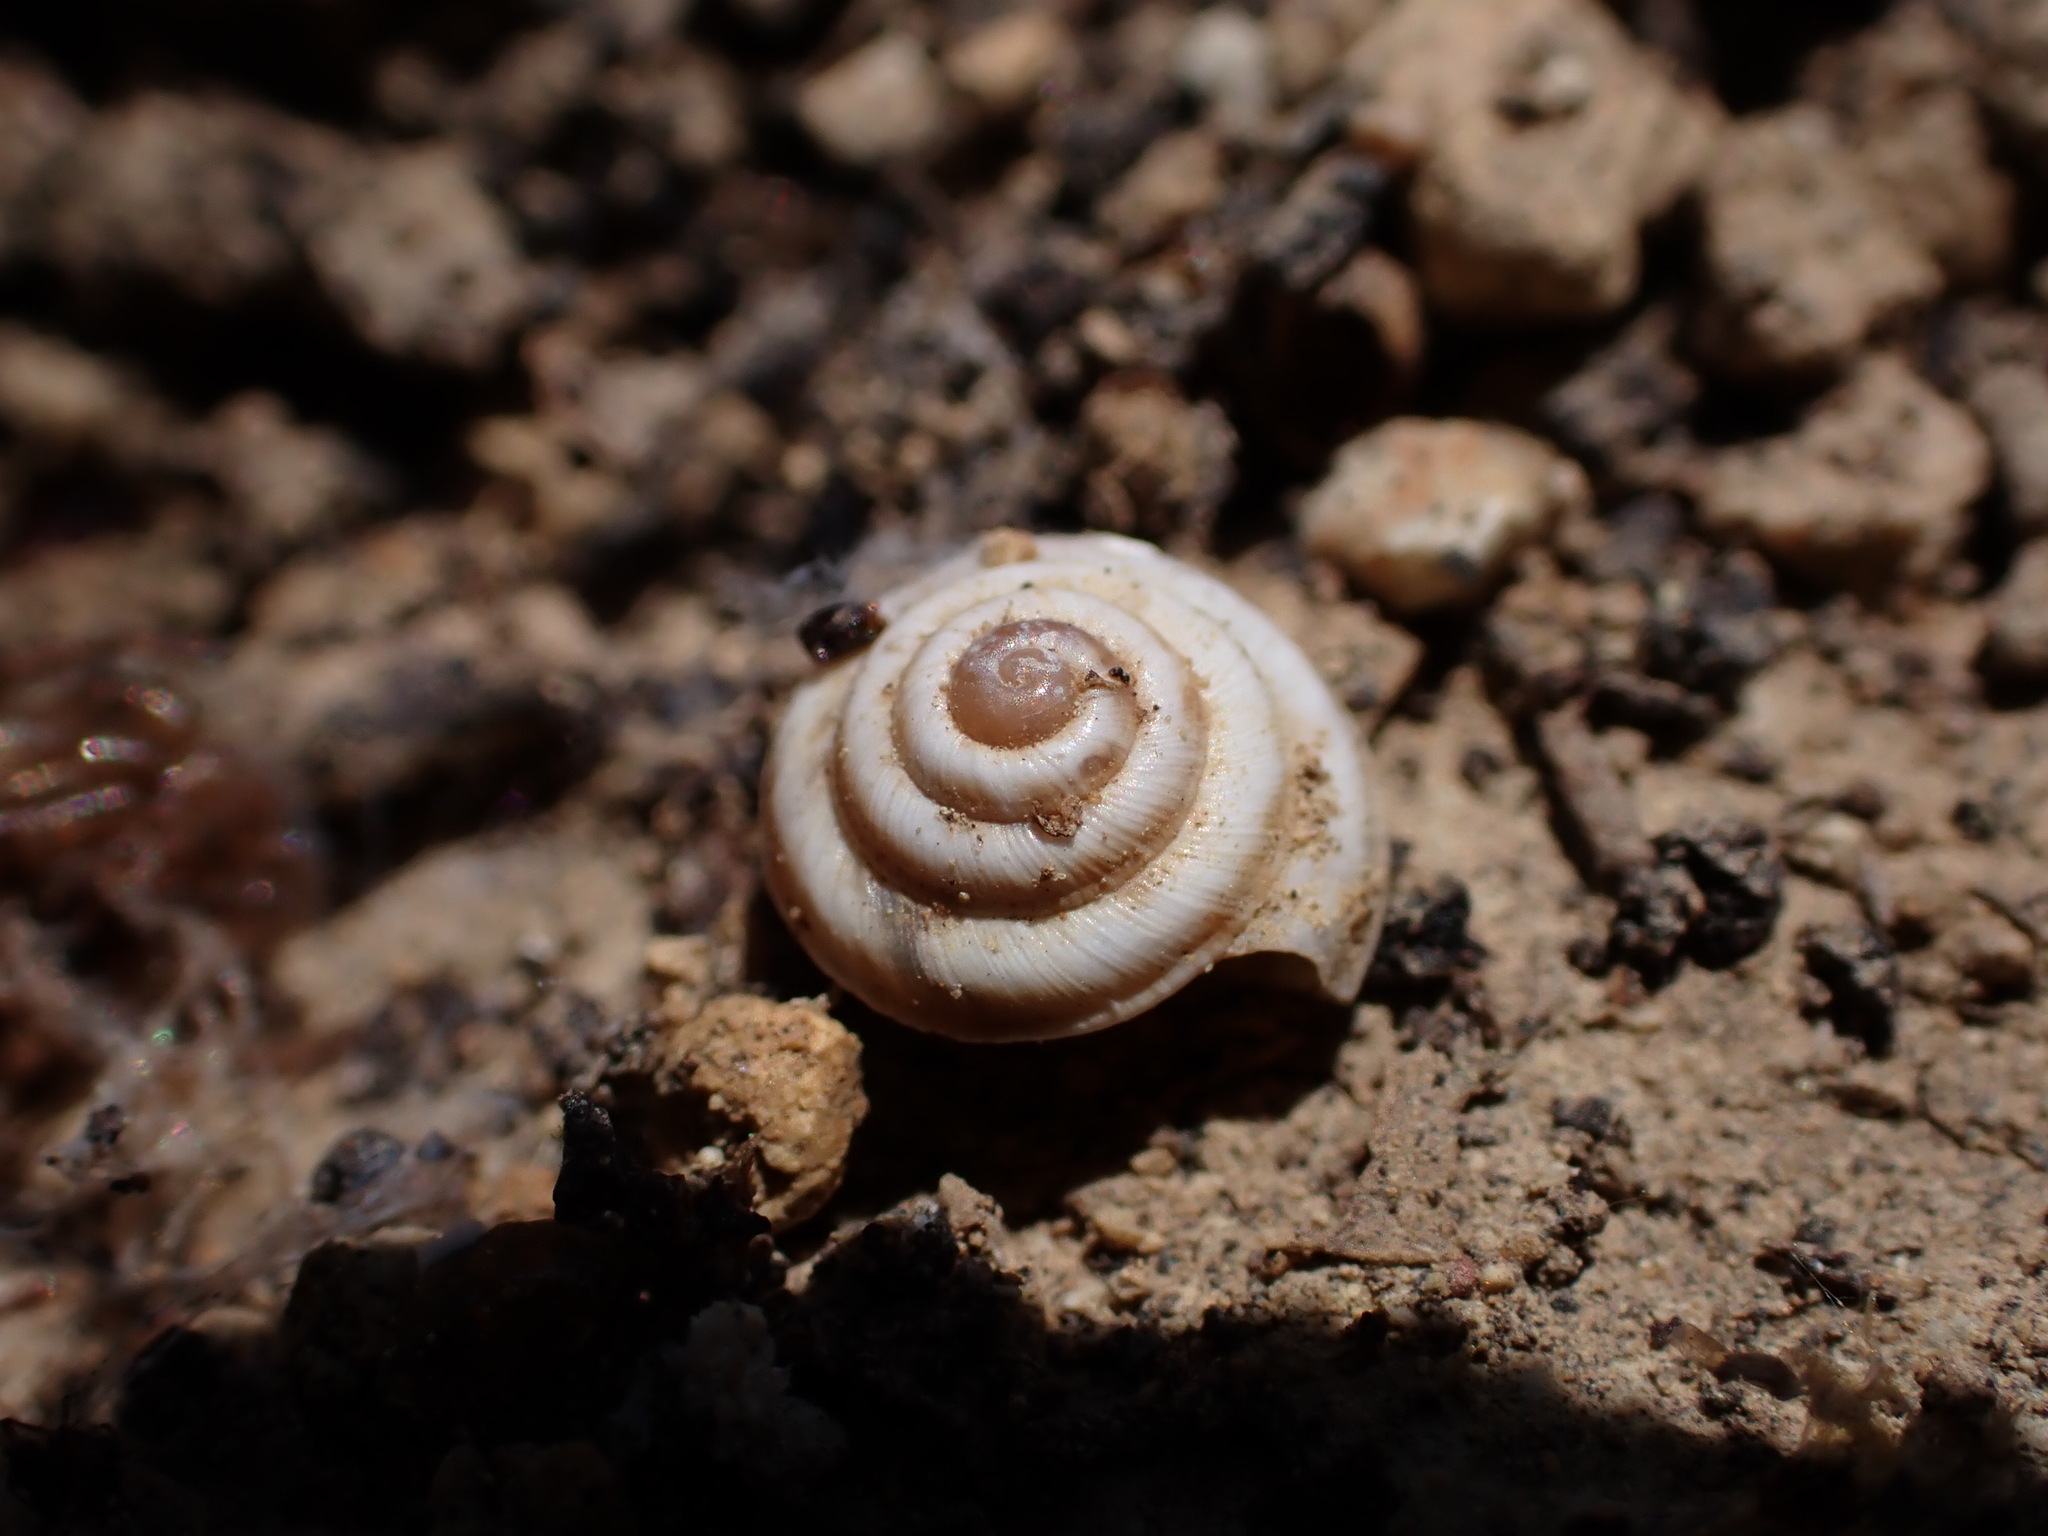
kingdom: Animalia
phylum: Mollusca
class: Gastropoda
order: Stylommatophora
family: Geomitridae
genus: Trochoidea
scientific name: Trochoidea trochoides
